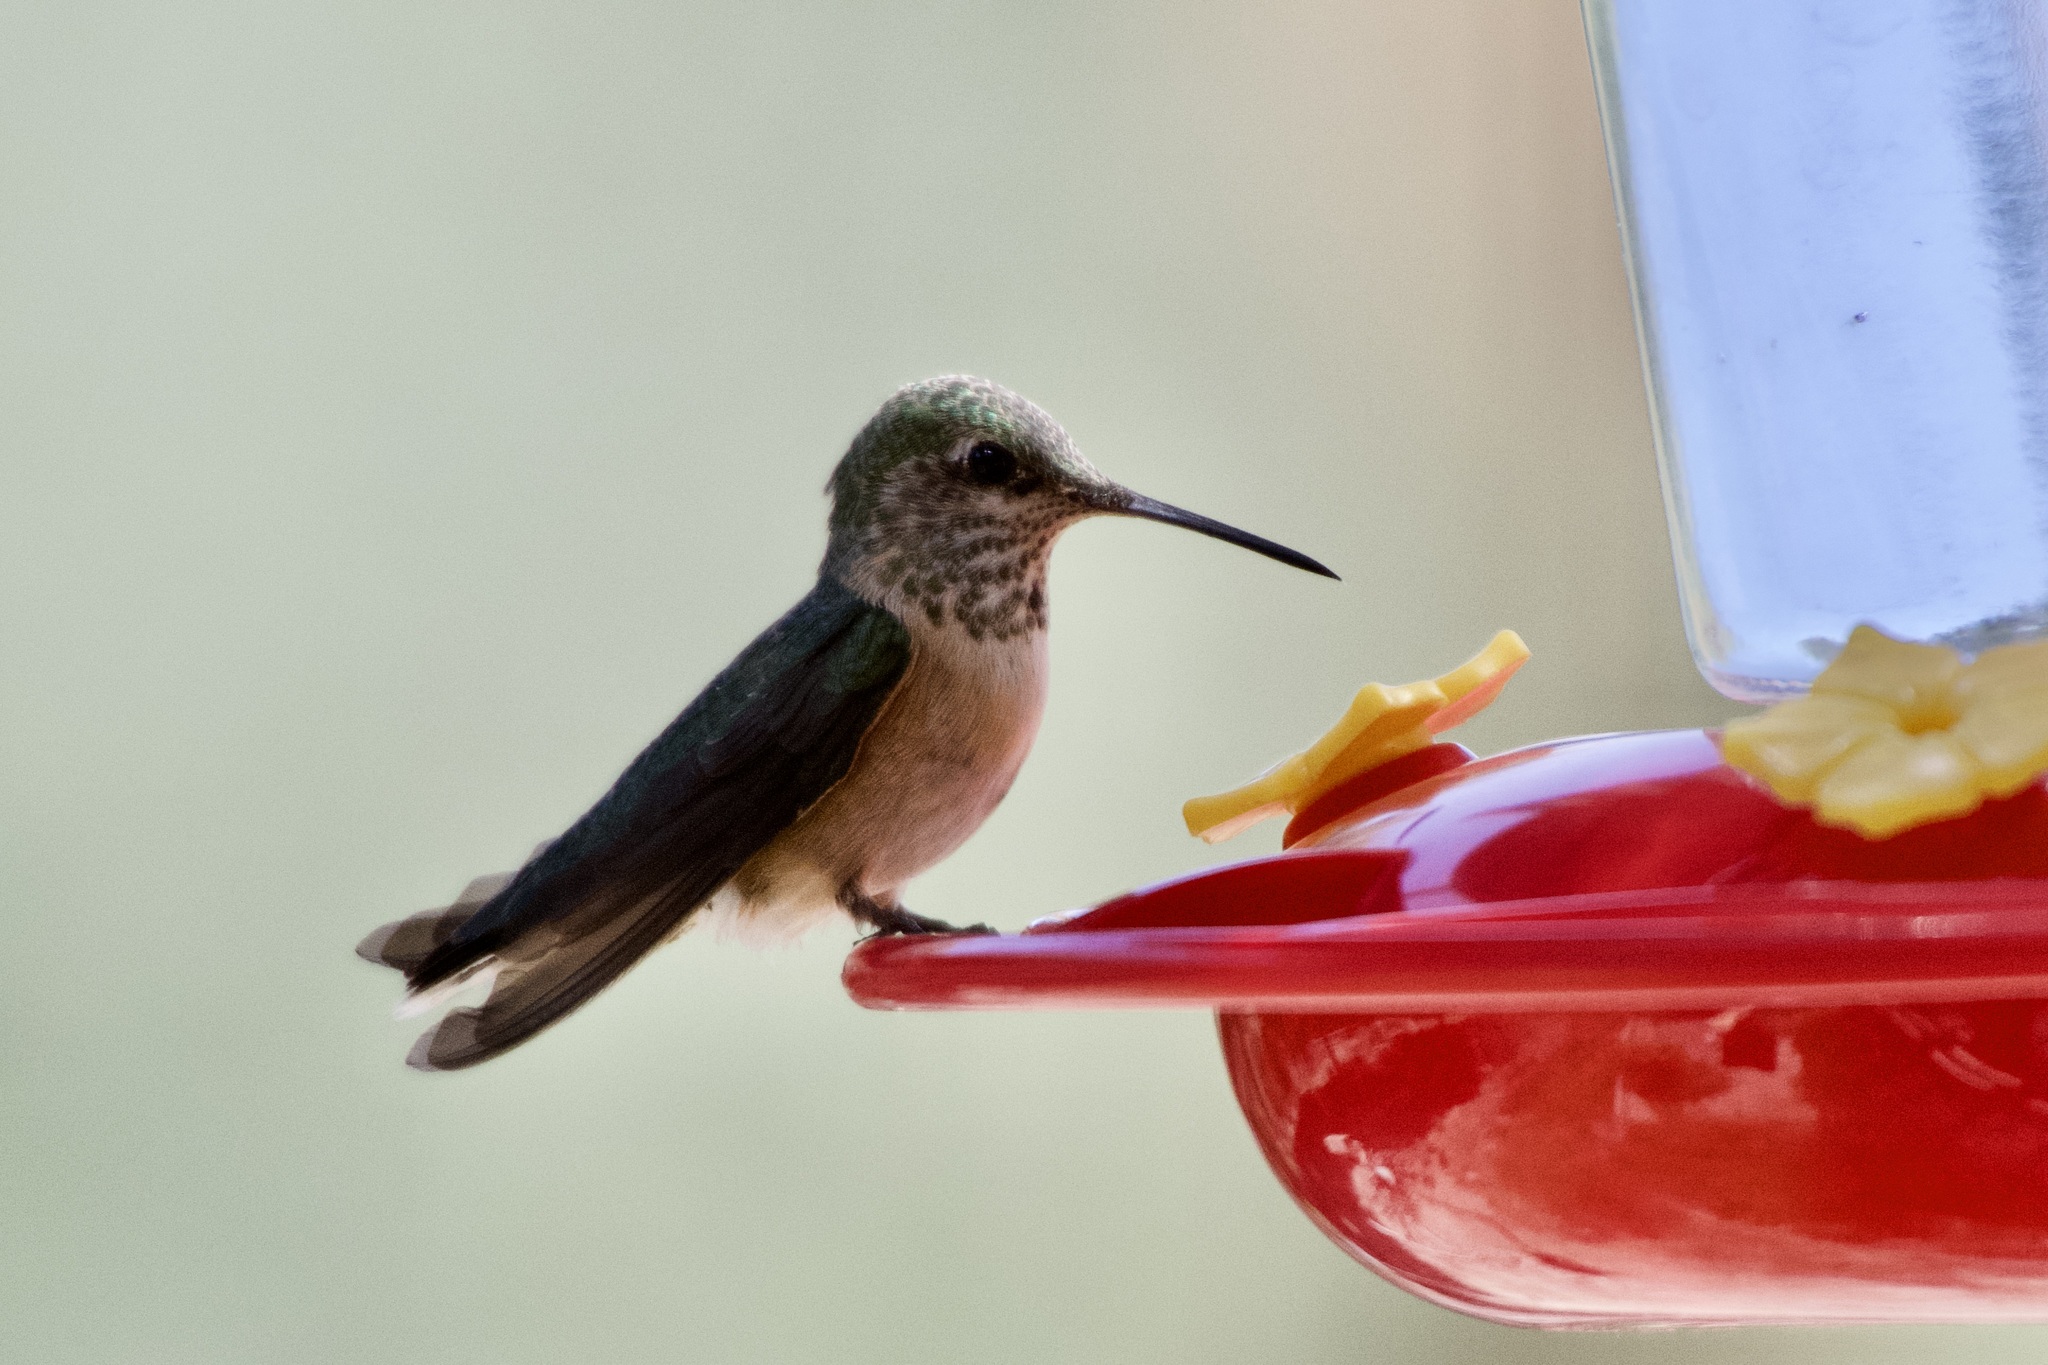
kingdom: Animalia
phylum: Chordata
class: Aves
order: Apodiformes
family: Trochilidae
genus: Selasphorus
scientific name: Selasphorus calliope
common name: Calliope hummingbird
